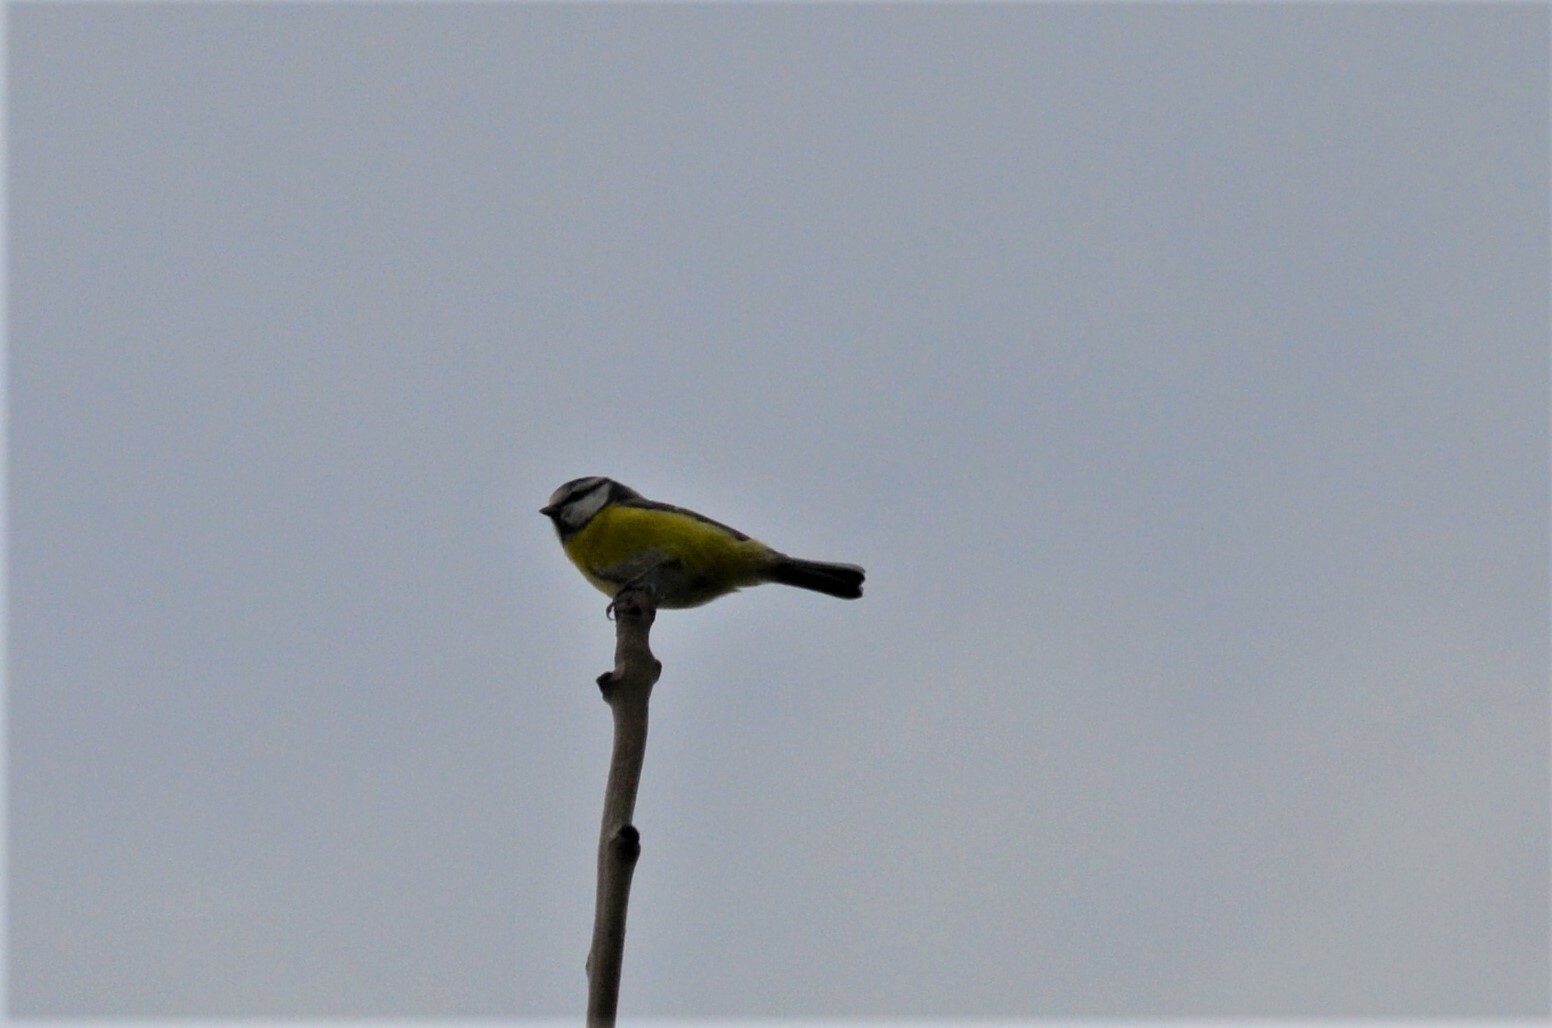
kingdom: Animalia
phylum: Chordata
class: Aves
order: Passeriformes
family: Paridae
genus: Cyanistes
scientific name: Cyanistes caeruleus
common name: Eurasian blue tit
